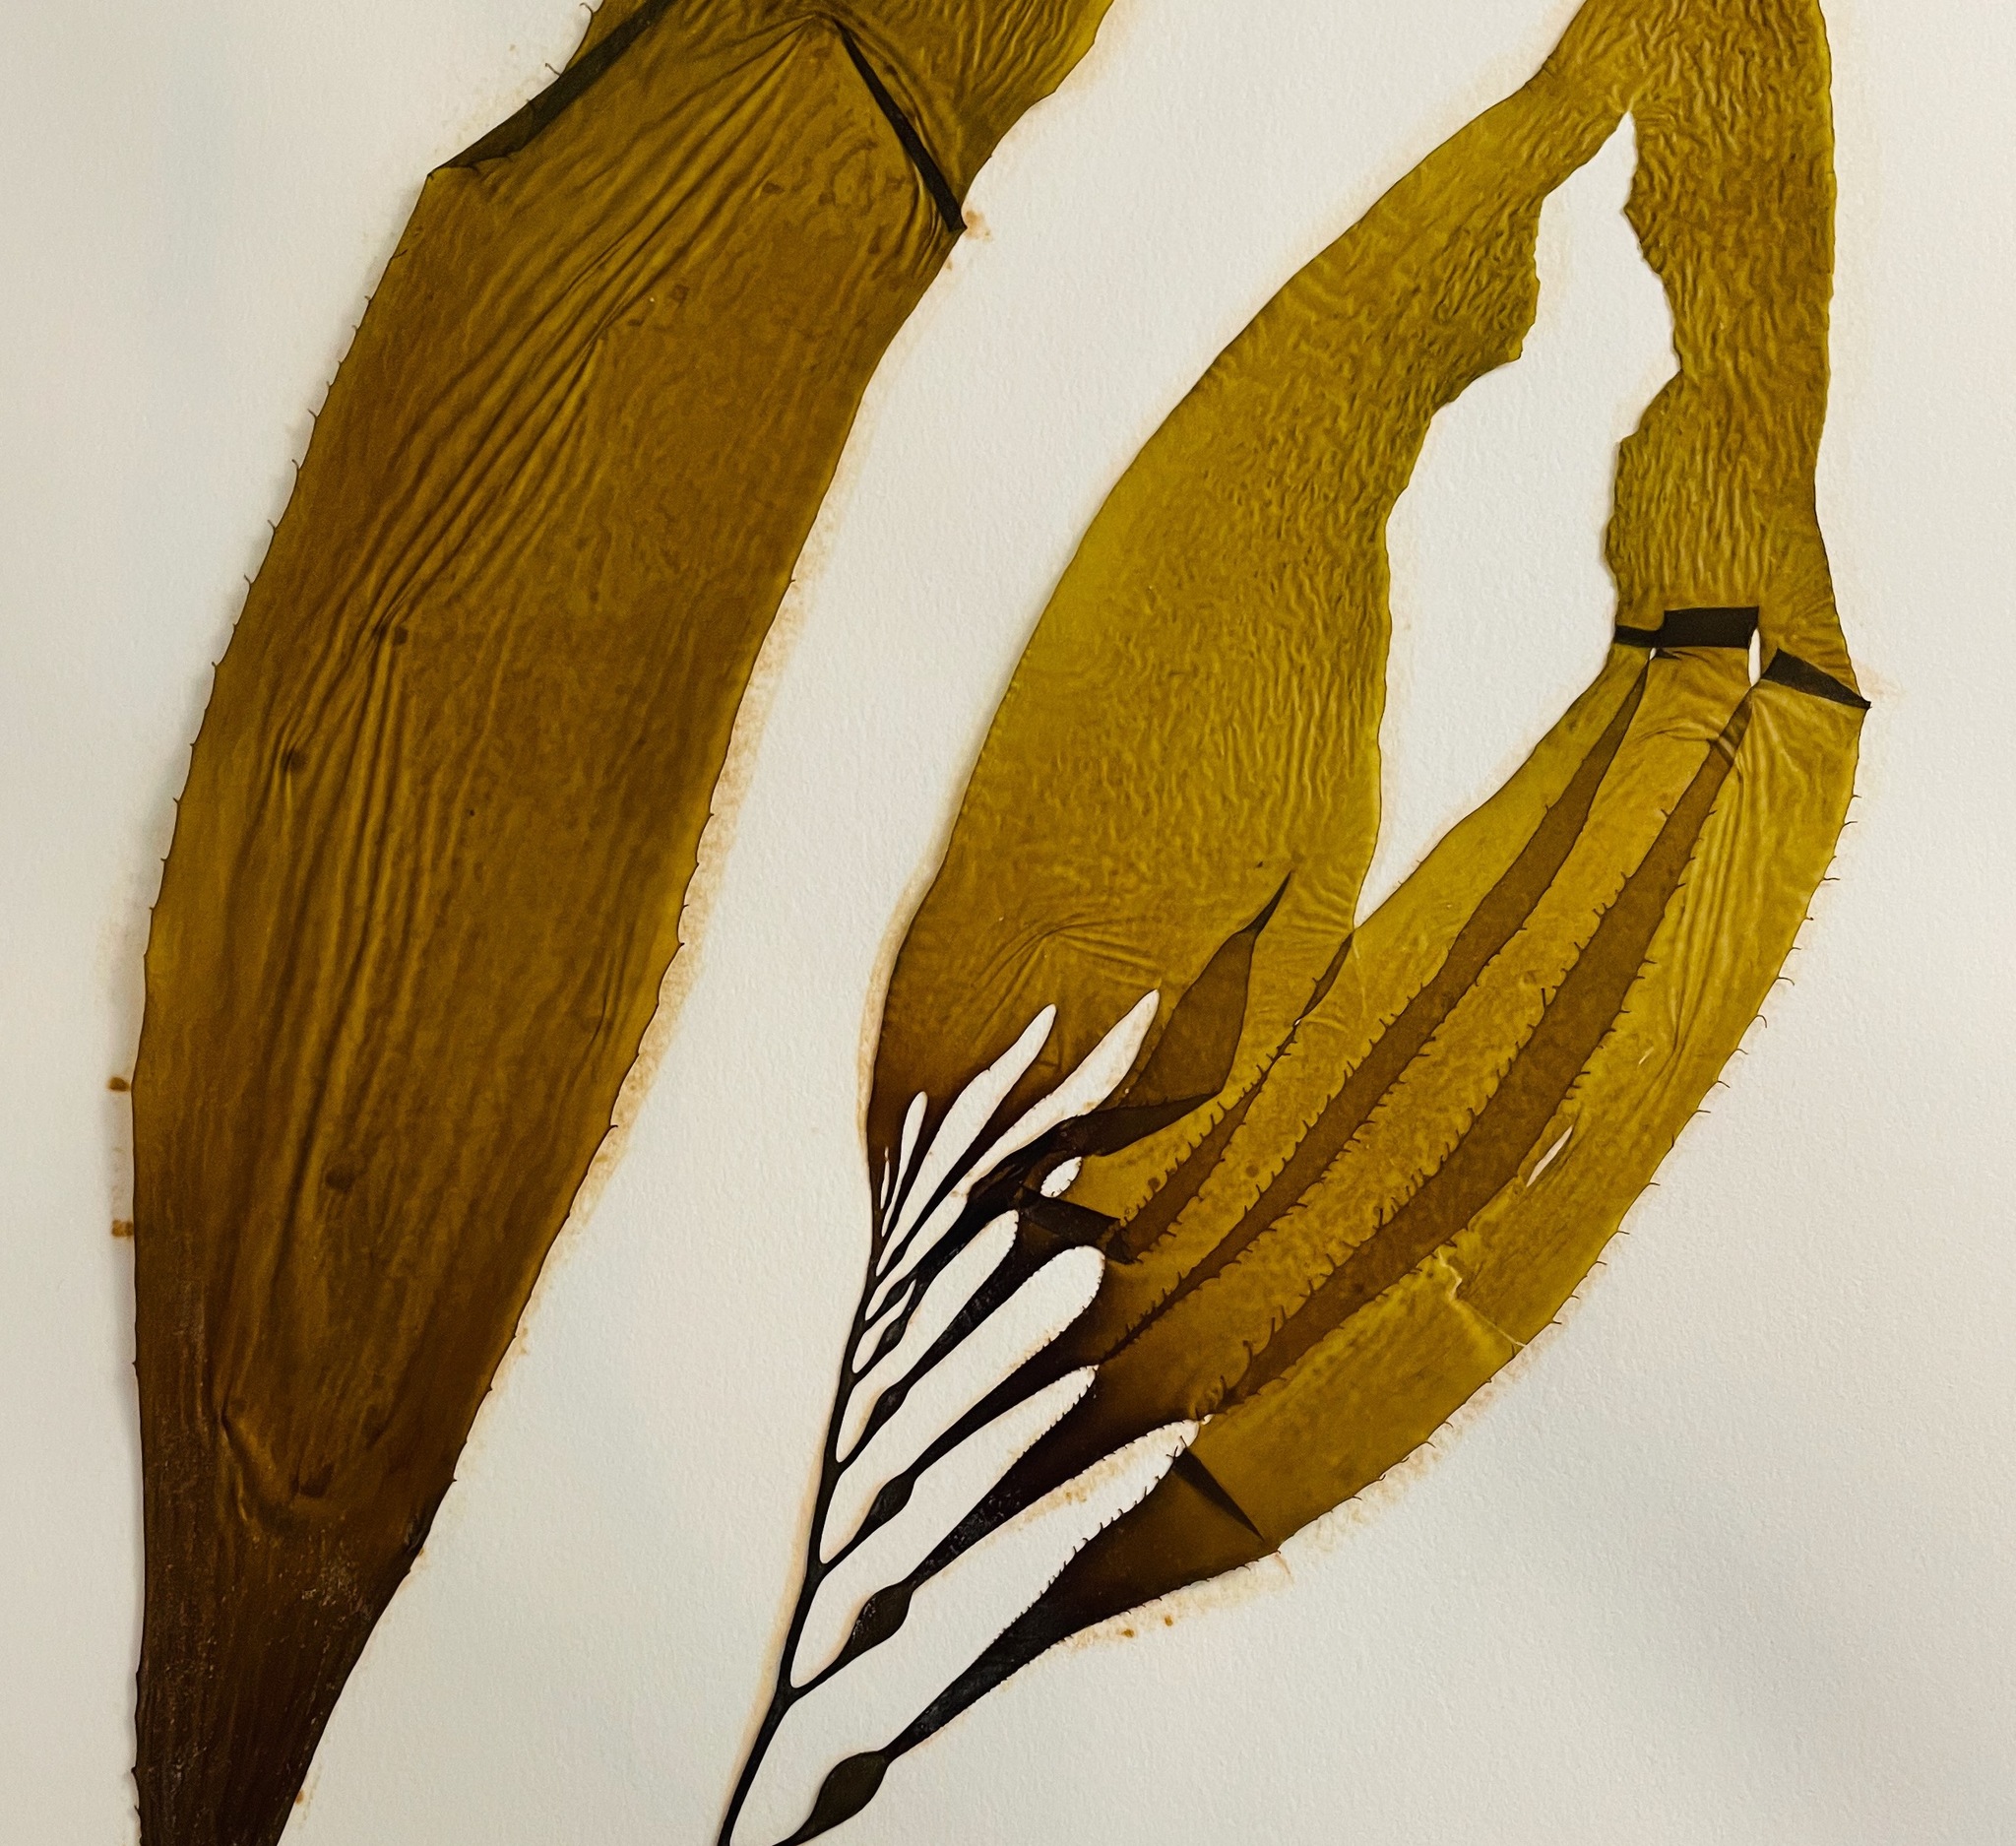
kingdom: Chromista
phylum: Ochrophyta
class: Phaeophyceae
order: Laminariales
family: Laminariaceae
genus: Macrocystis
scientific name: Macrocystis pyrifera
